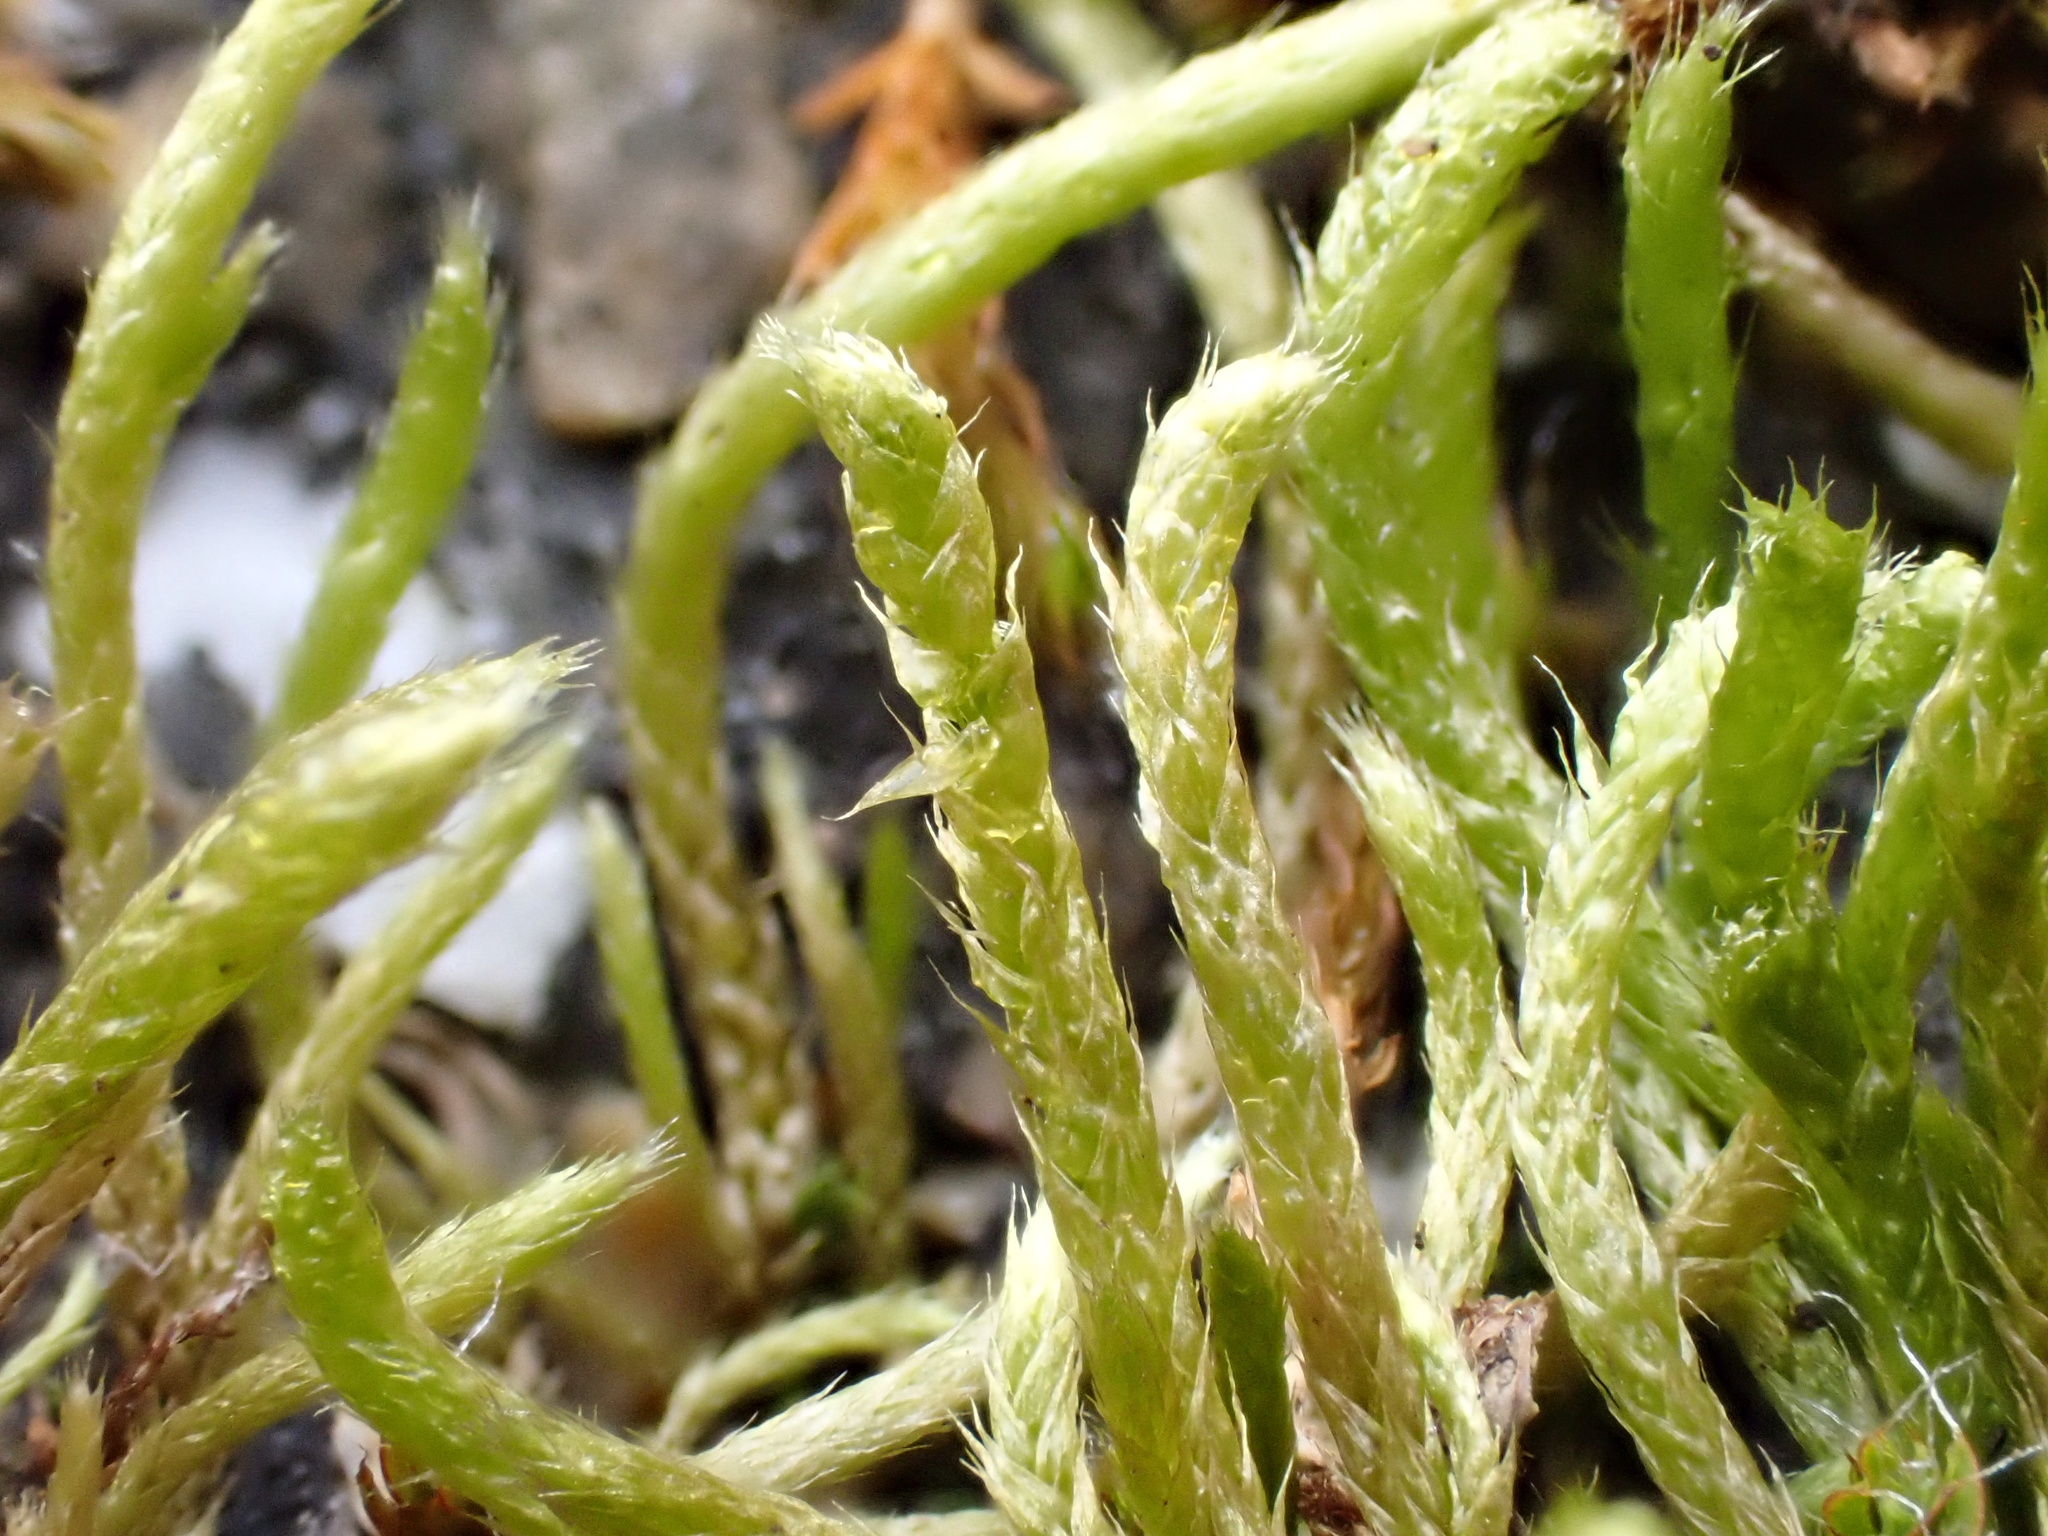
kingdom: Plantae
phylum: Bryophyta
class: Bryopsida
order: Hypnales
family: Brachytheciaceae
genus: Brachythecium
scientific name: Brachythecium albicans
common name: Whitish ragged moss
